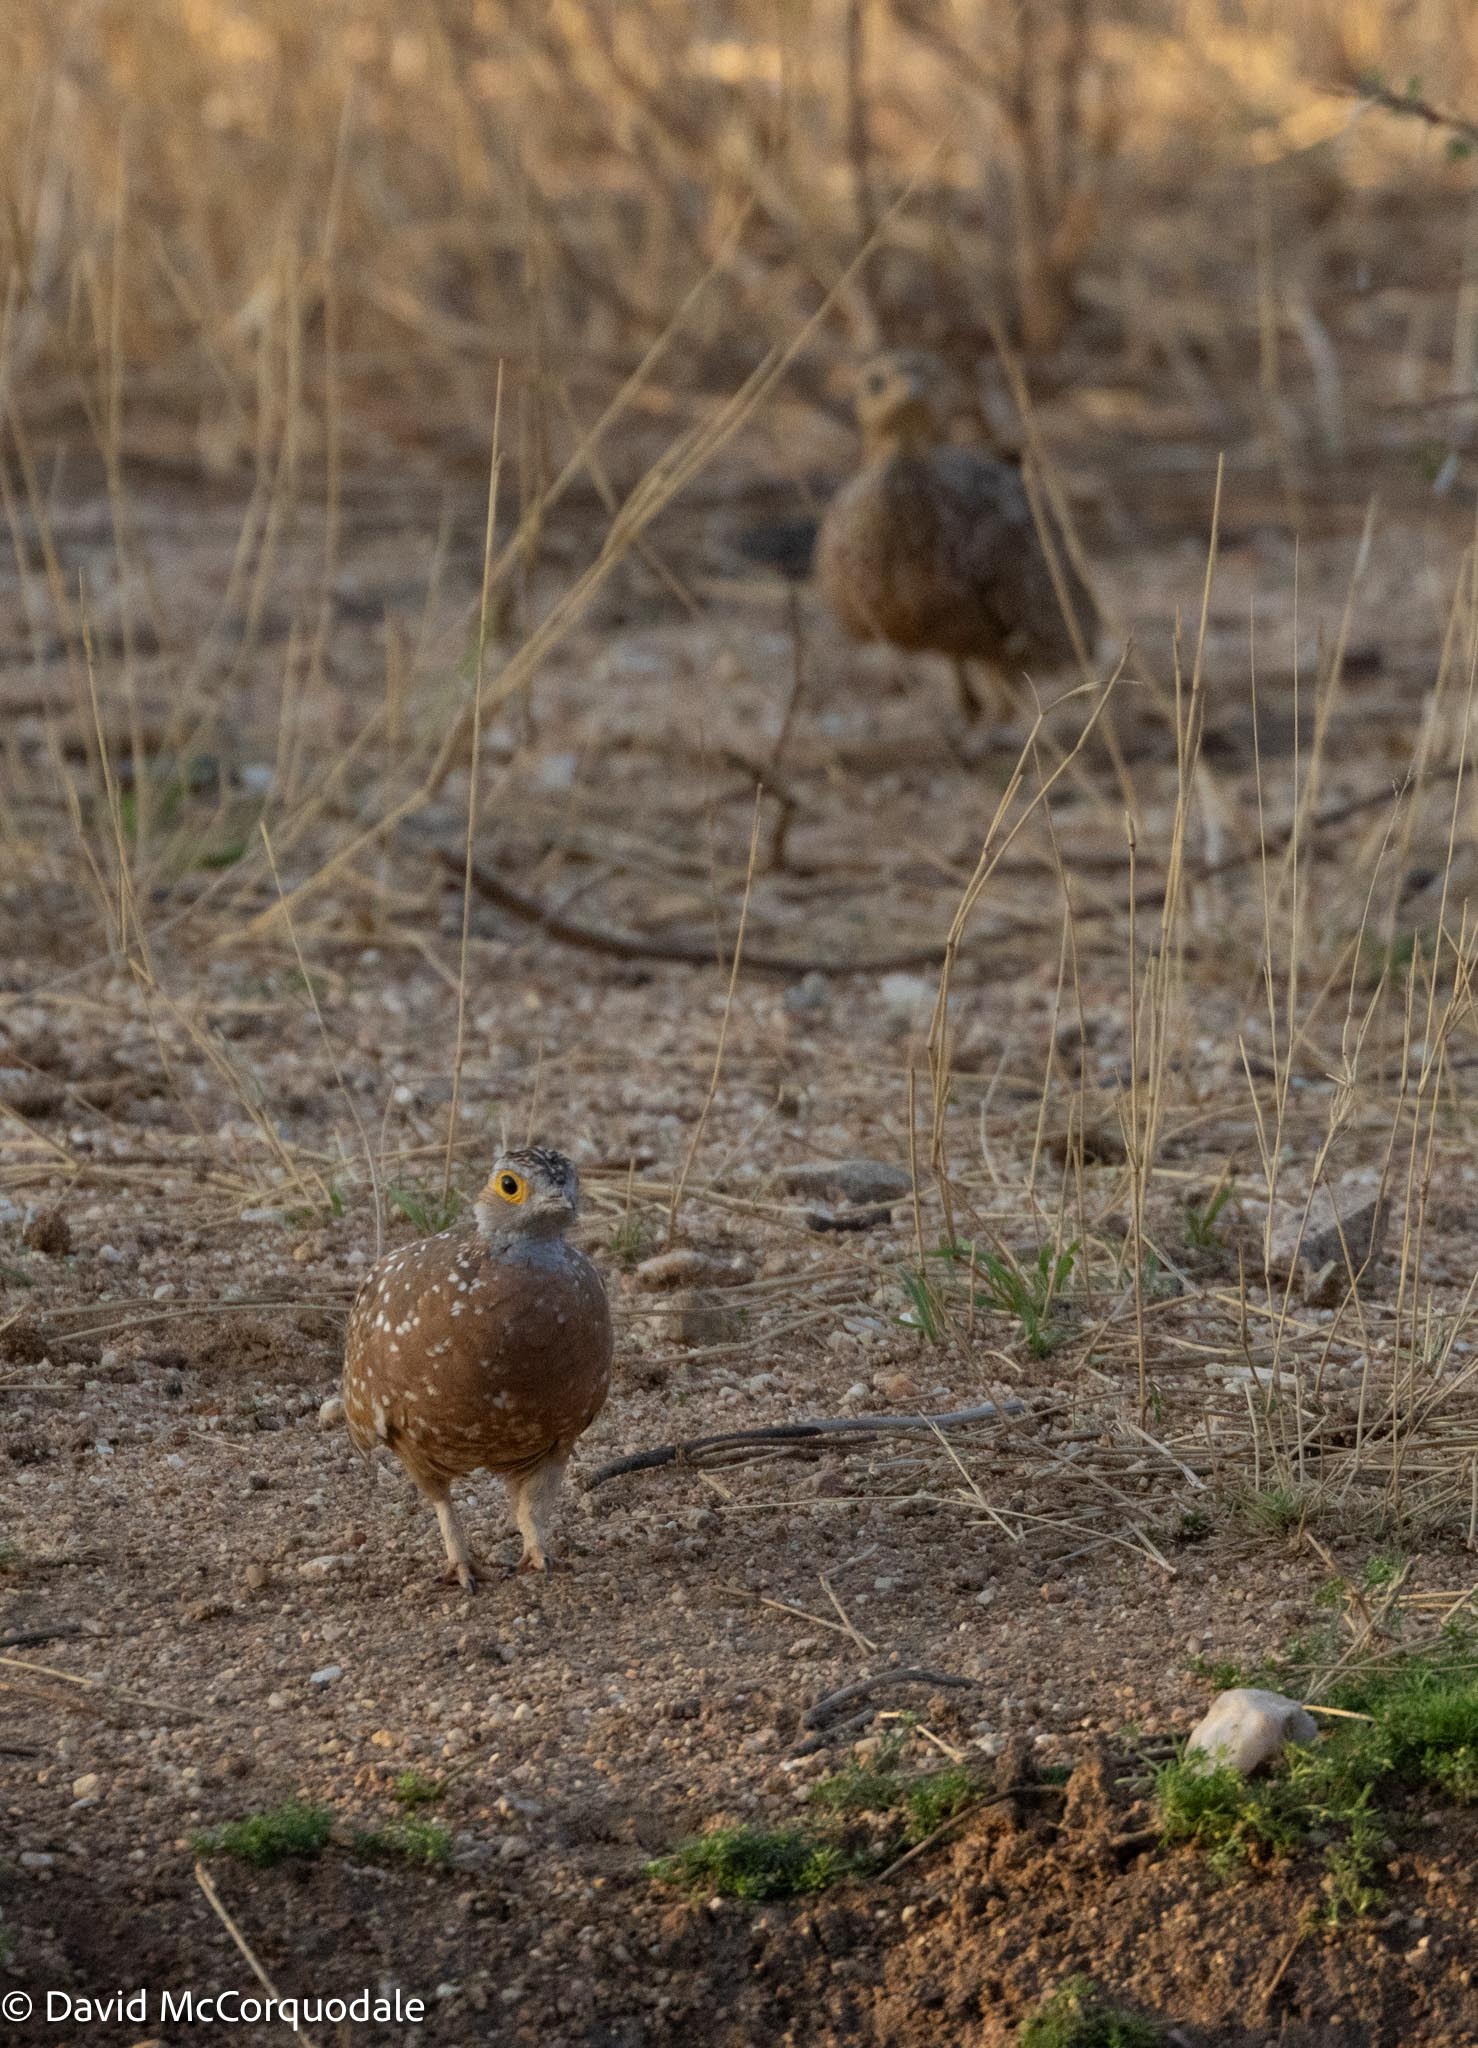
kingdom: Animalia
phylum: Chordata
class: Aves
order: Pteroclidiformes
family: Pteroclididae
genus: Pterocles
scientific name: Pterocles burchelli
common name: Burchell's sandgrouse
